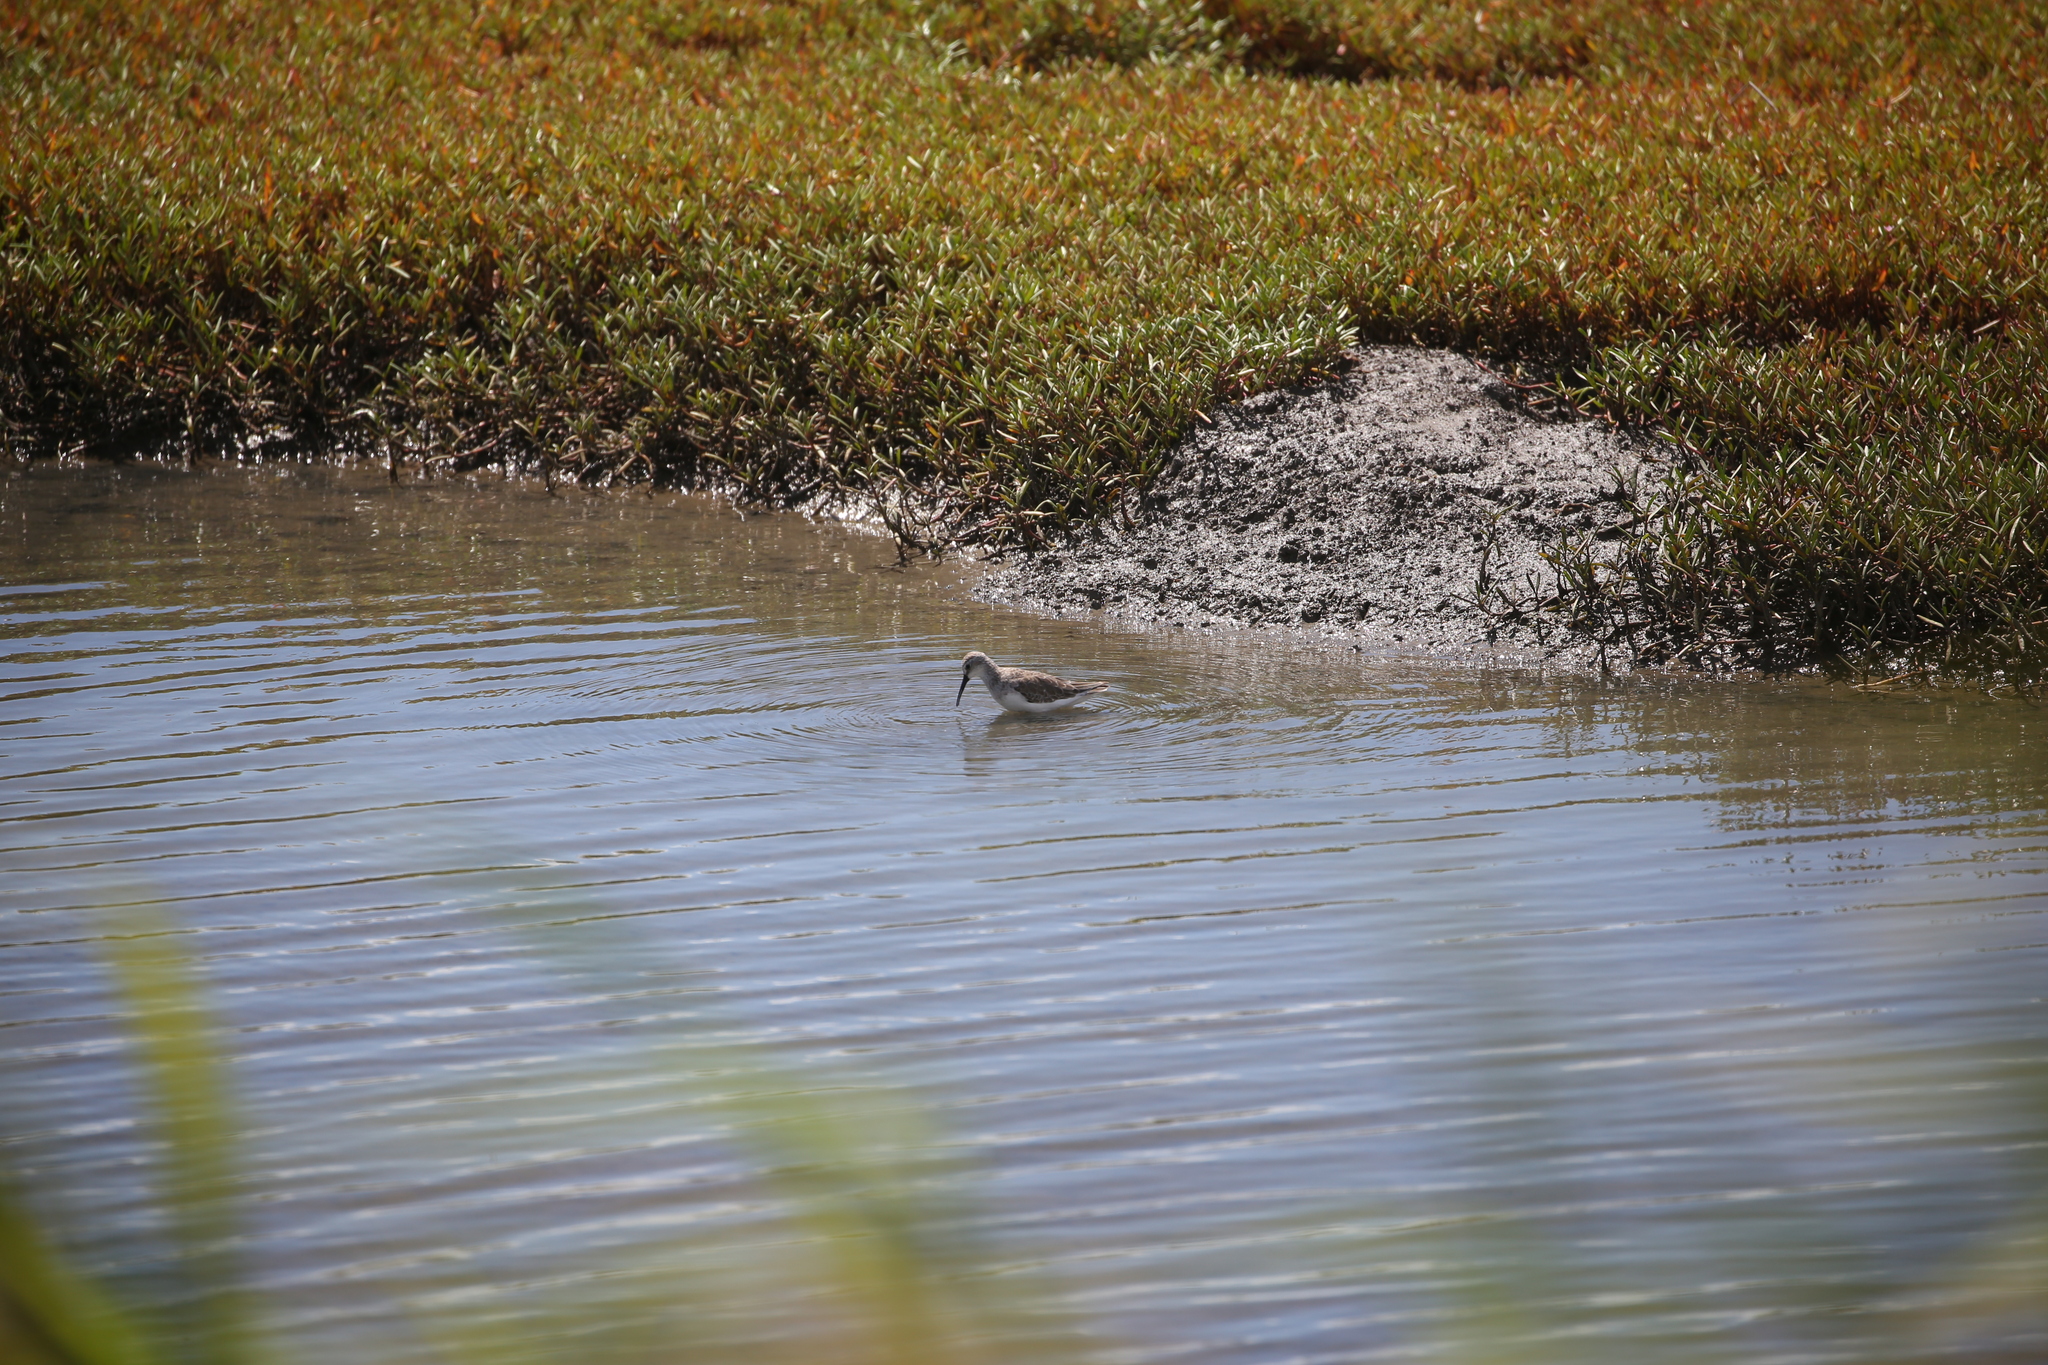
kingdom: Animalia
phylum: Chordata
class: Aves
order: Charadriiformes
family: Scolopacidae
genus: Calidris
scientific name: Calidris ferruginea
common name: Curlew sandpiper
